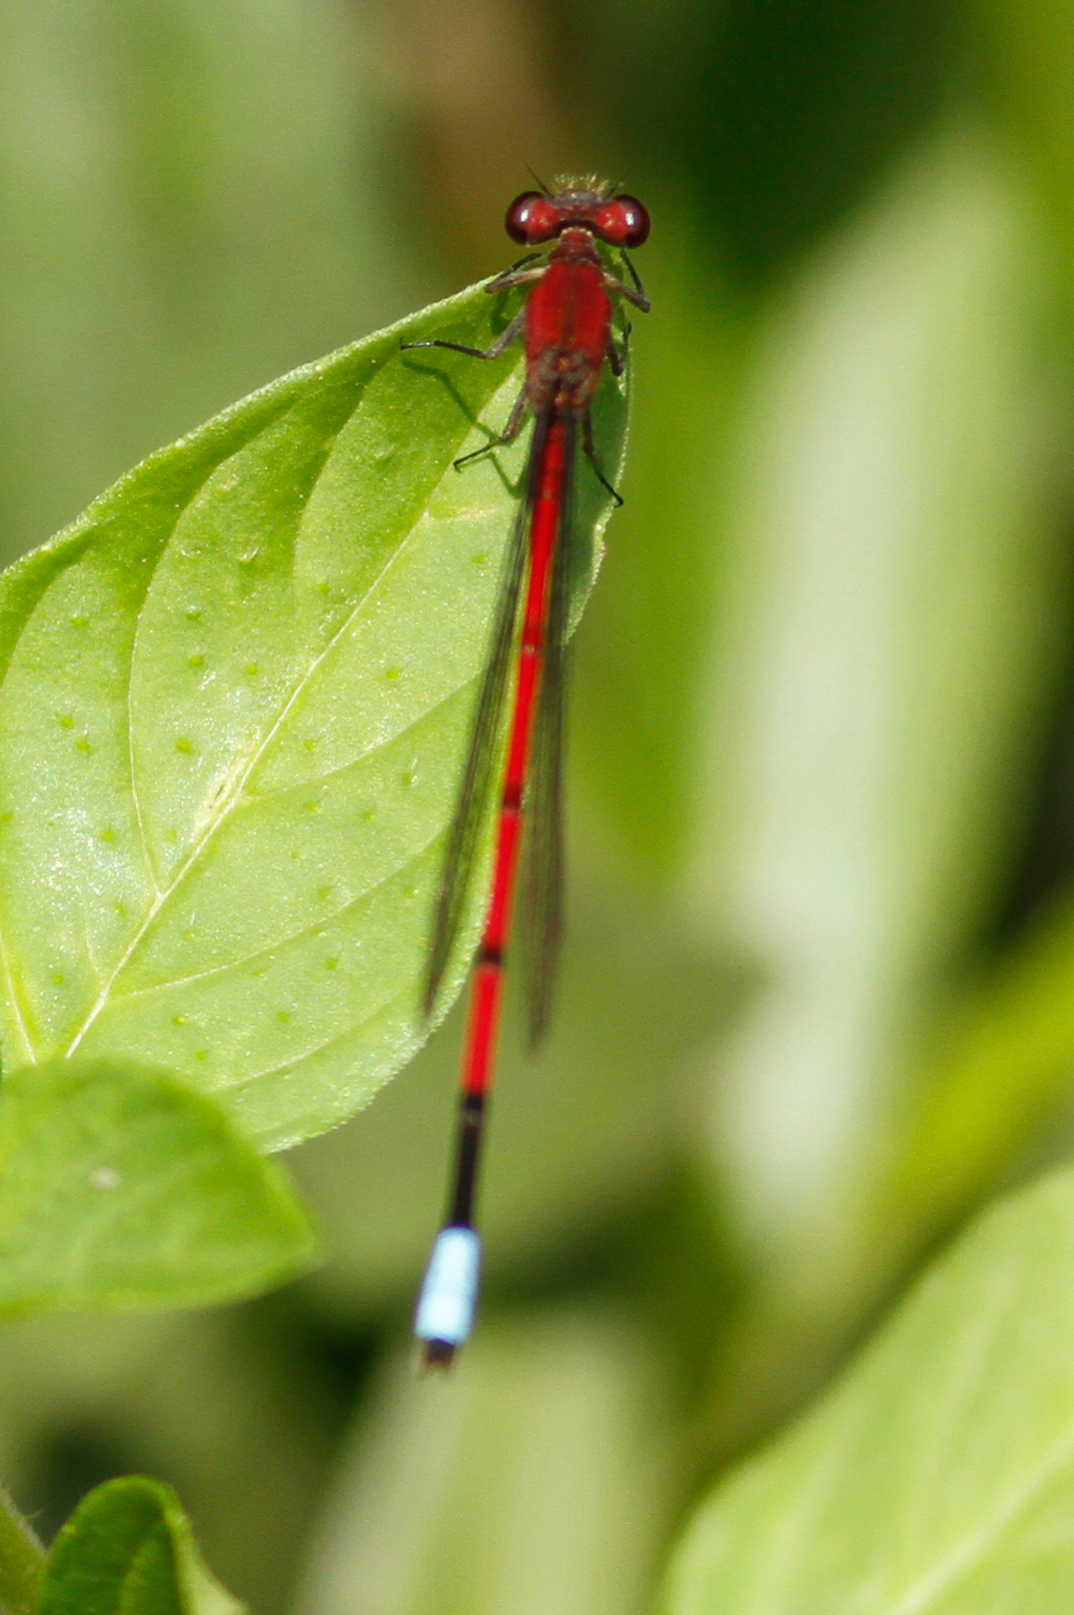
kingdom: Animalia
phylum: Arthropoda
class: Insecta
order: Odonata
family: Coenagrionidae
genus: Oxyagrion
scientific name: Oxyagrion tennesseni
